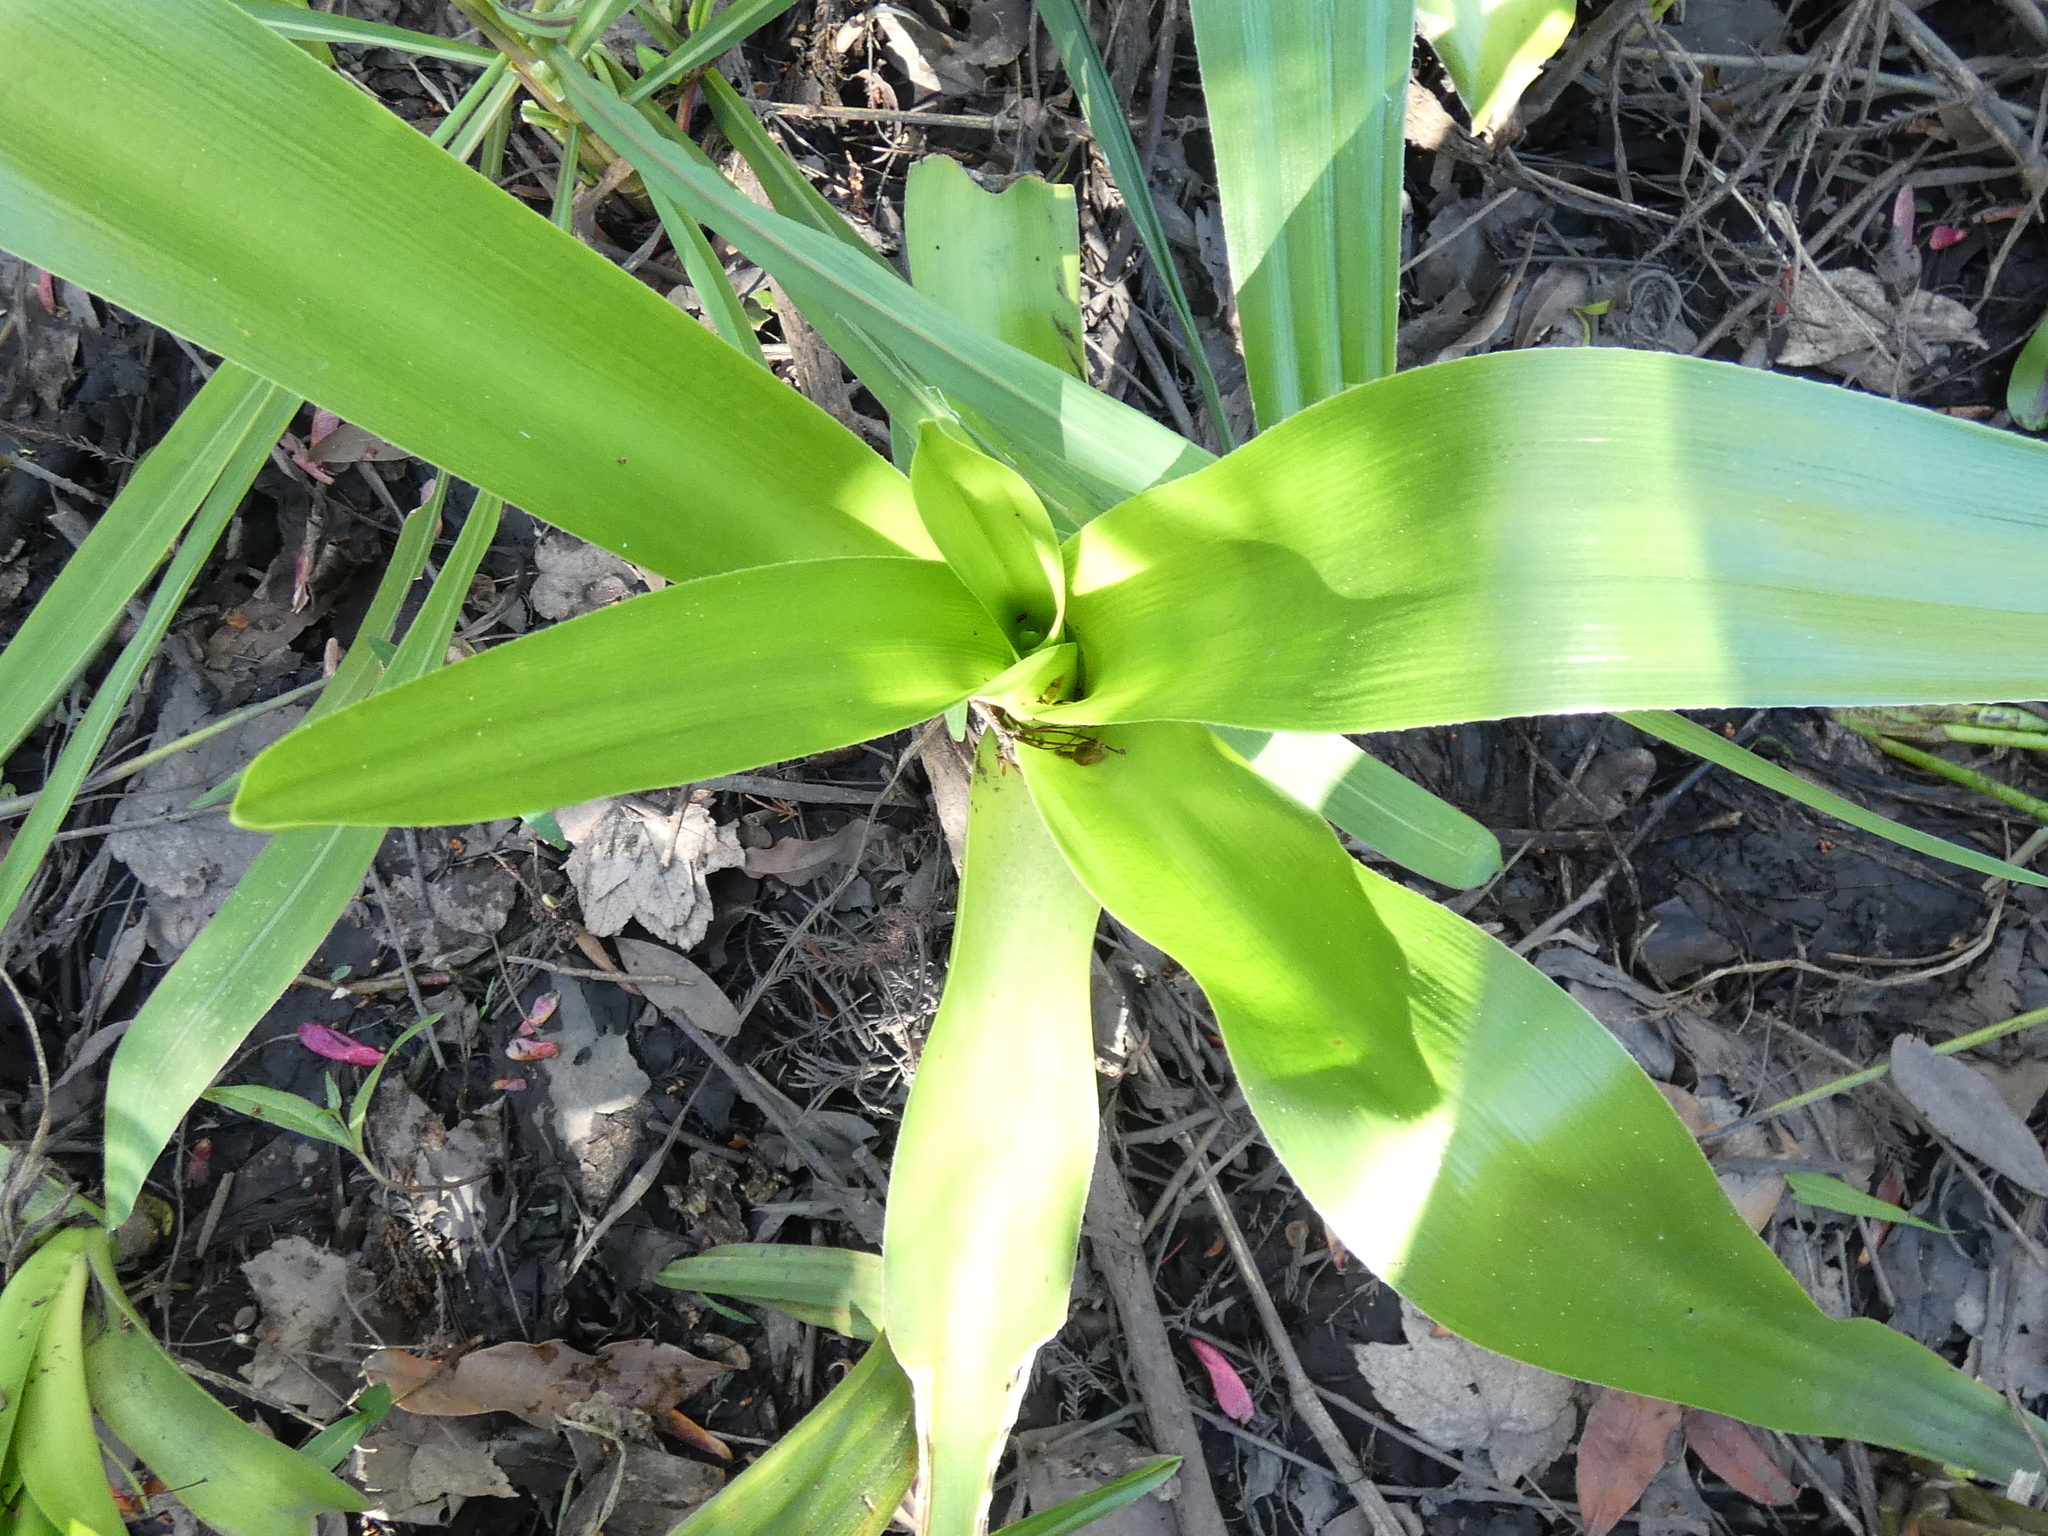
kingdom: Plantae
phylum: Tracheophyta
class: Liliopsida
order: Asparagales
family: Amaryllidaceae
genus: Crinum
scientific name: Crinum americanum
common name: Florida swamp-lily
